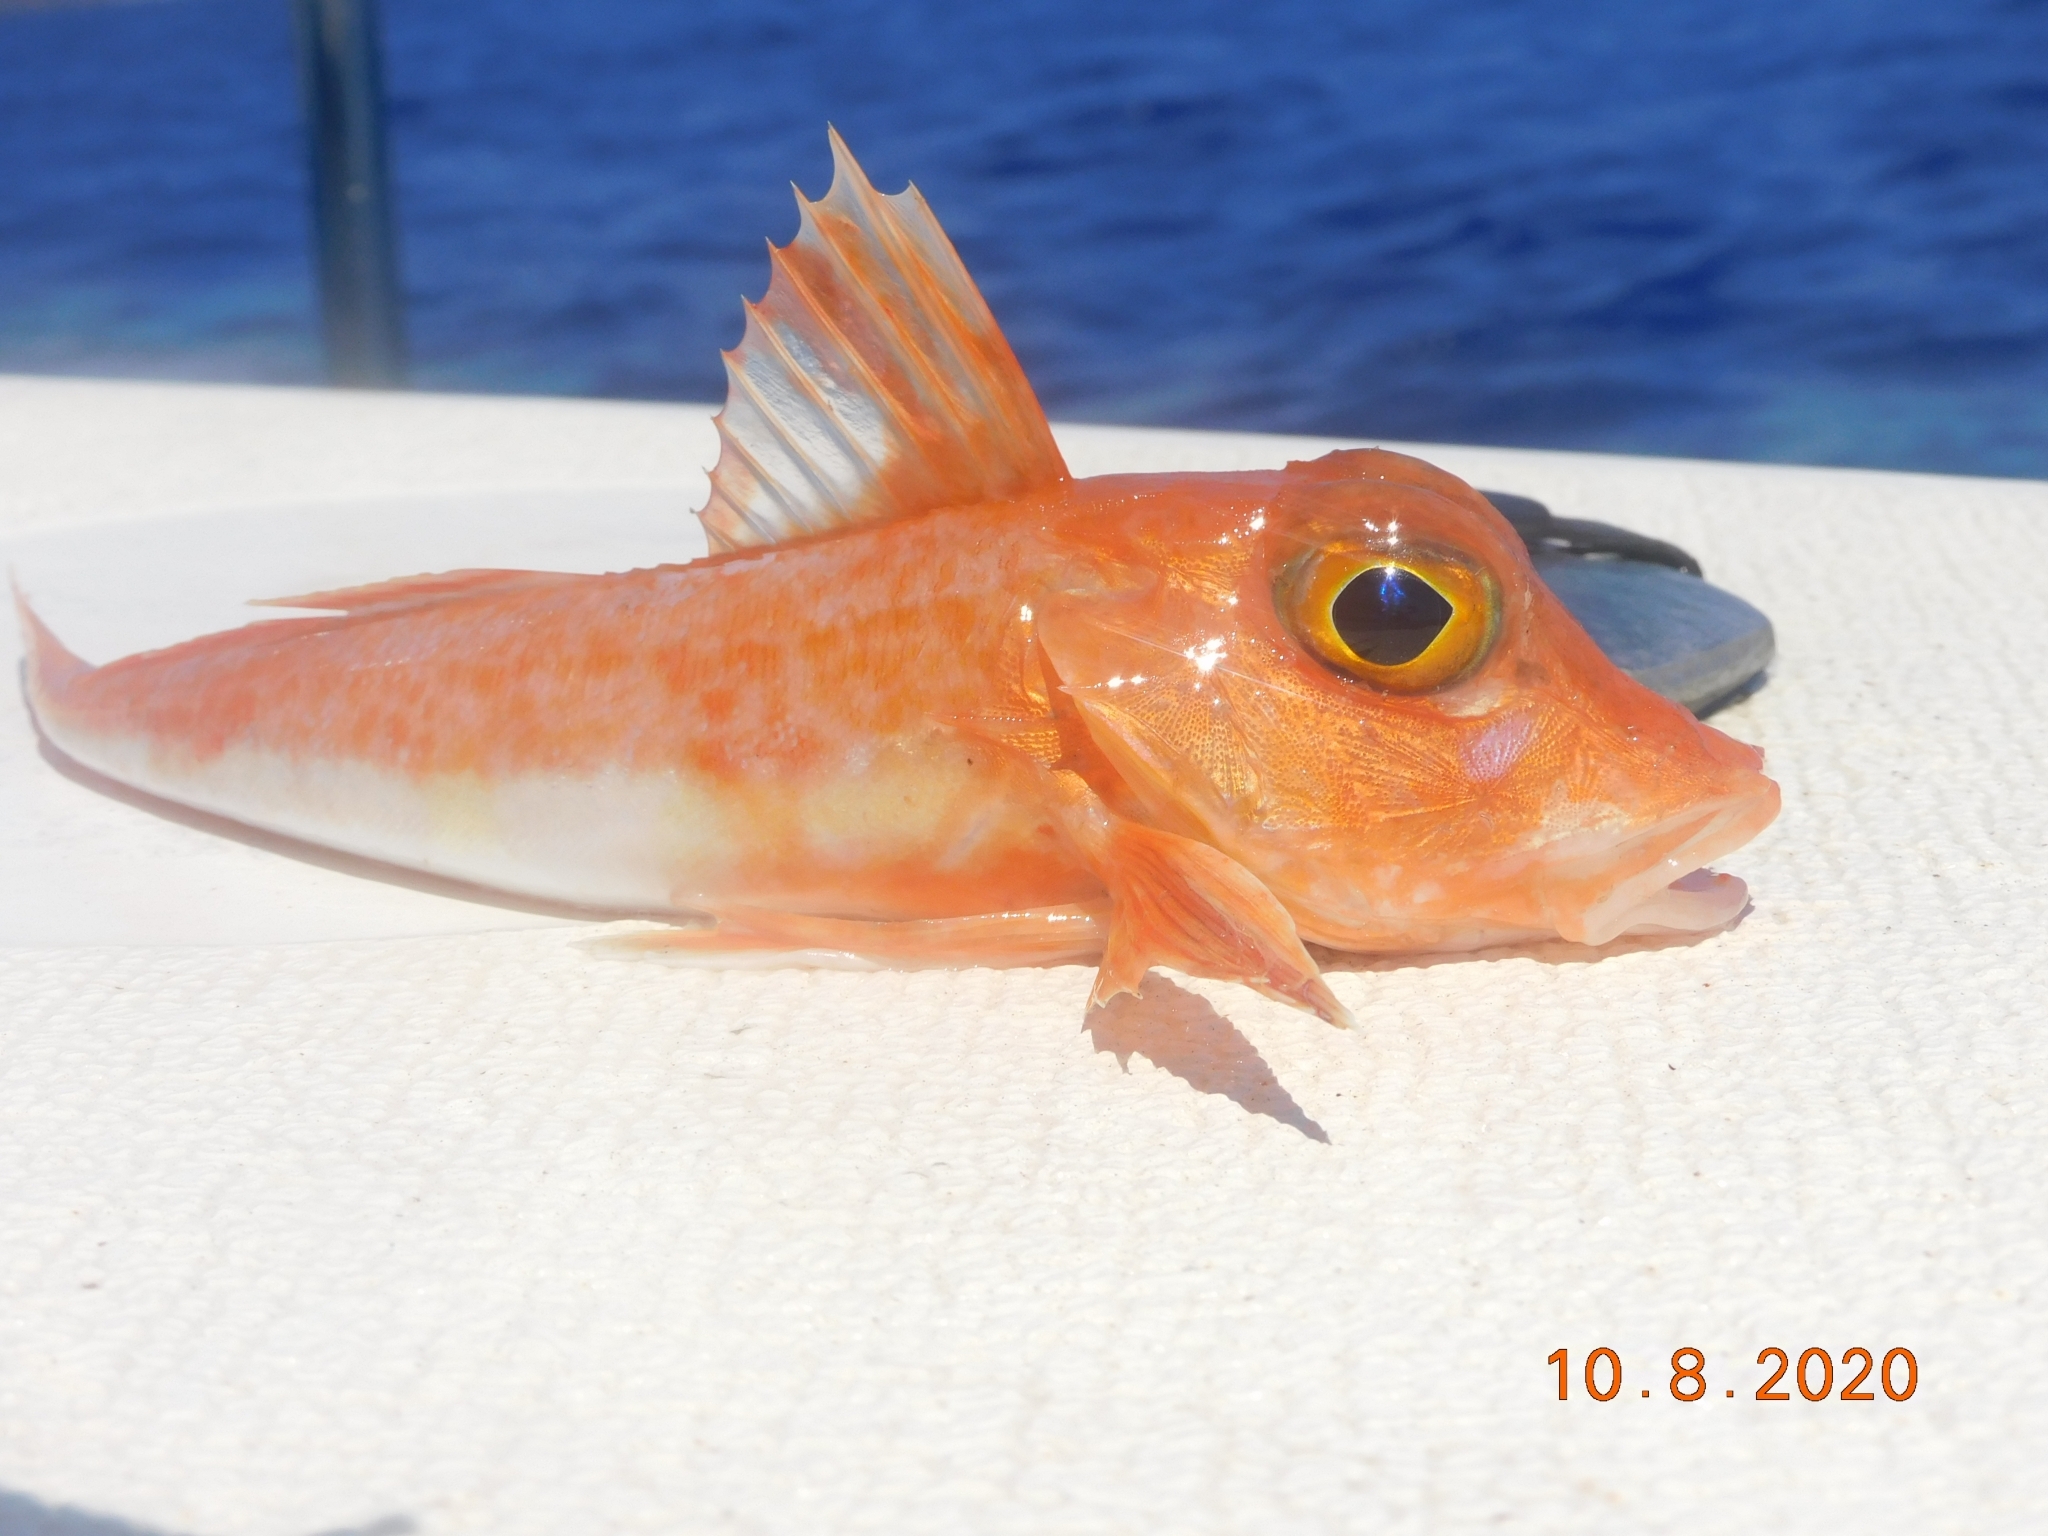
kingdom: Animalia
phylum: Chordata
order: Scorpaeniformes
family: Triglidae
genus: Chelidonichthys
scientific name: Chelidonichthys cuculus
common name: Red gurnard
